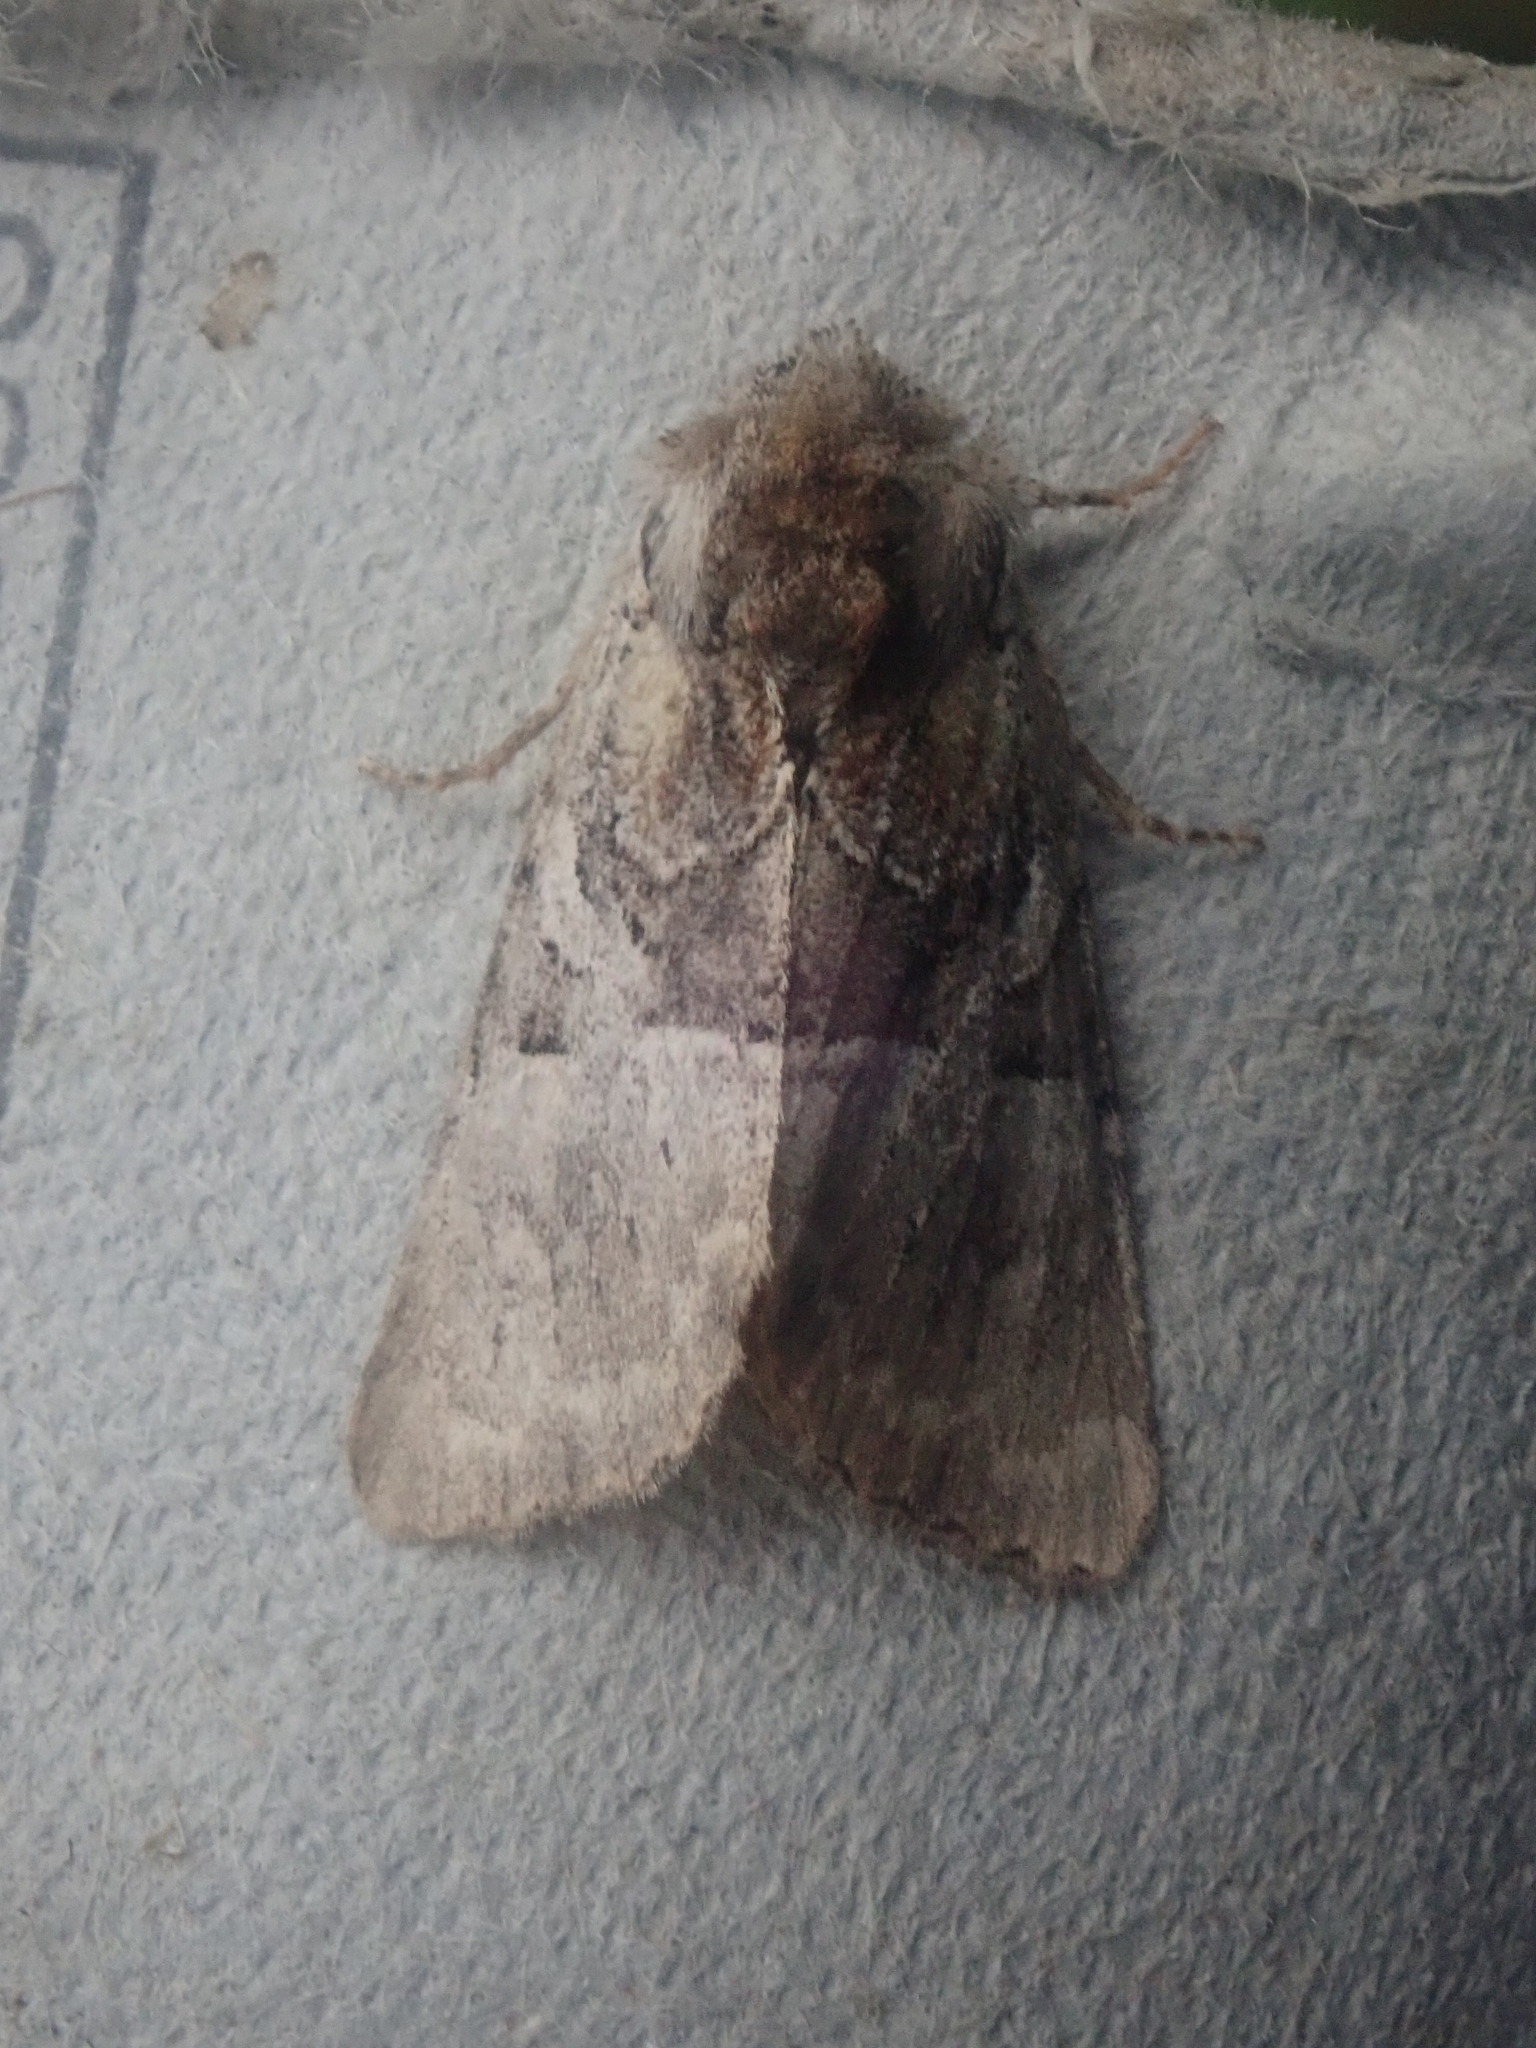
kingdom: Animalia
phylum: Arthropoda
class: Insecta
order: Lepidoptera
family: Noctuidae
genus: Meropleon
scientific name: Meropleon diversicolor
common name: Multicolored sedgeminer moth
